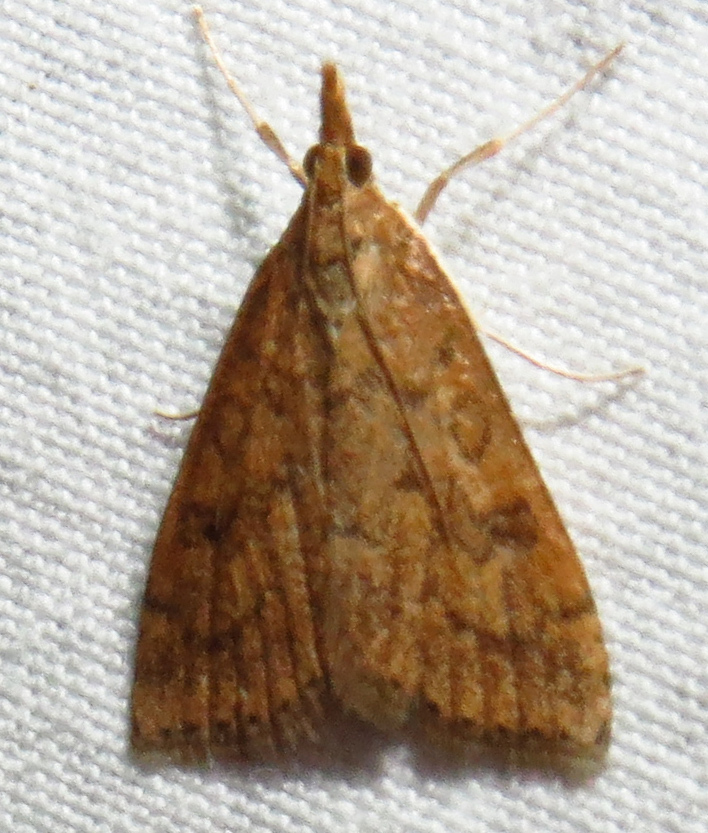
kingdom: Animalia
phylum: Arthropoda
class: Insecta
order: Lepidoptera
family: Crambidae
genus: Udea
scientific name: Udea rubigalis
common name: Celery leaftier moth
